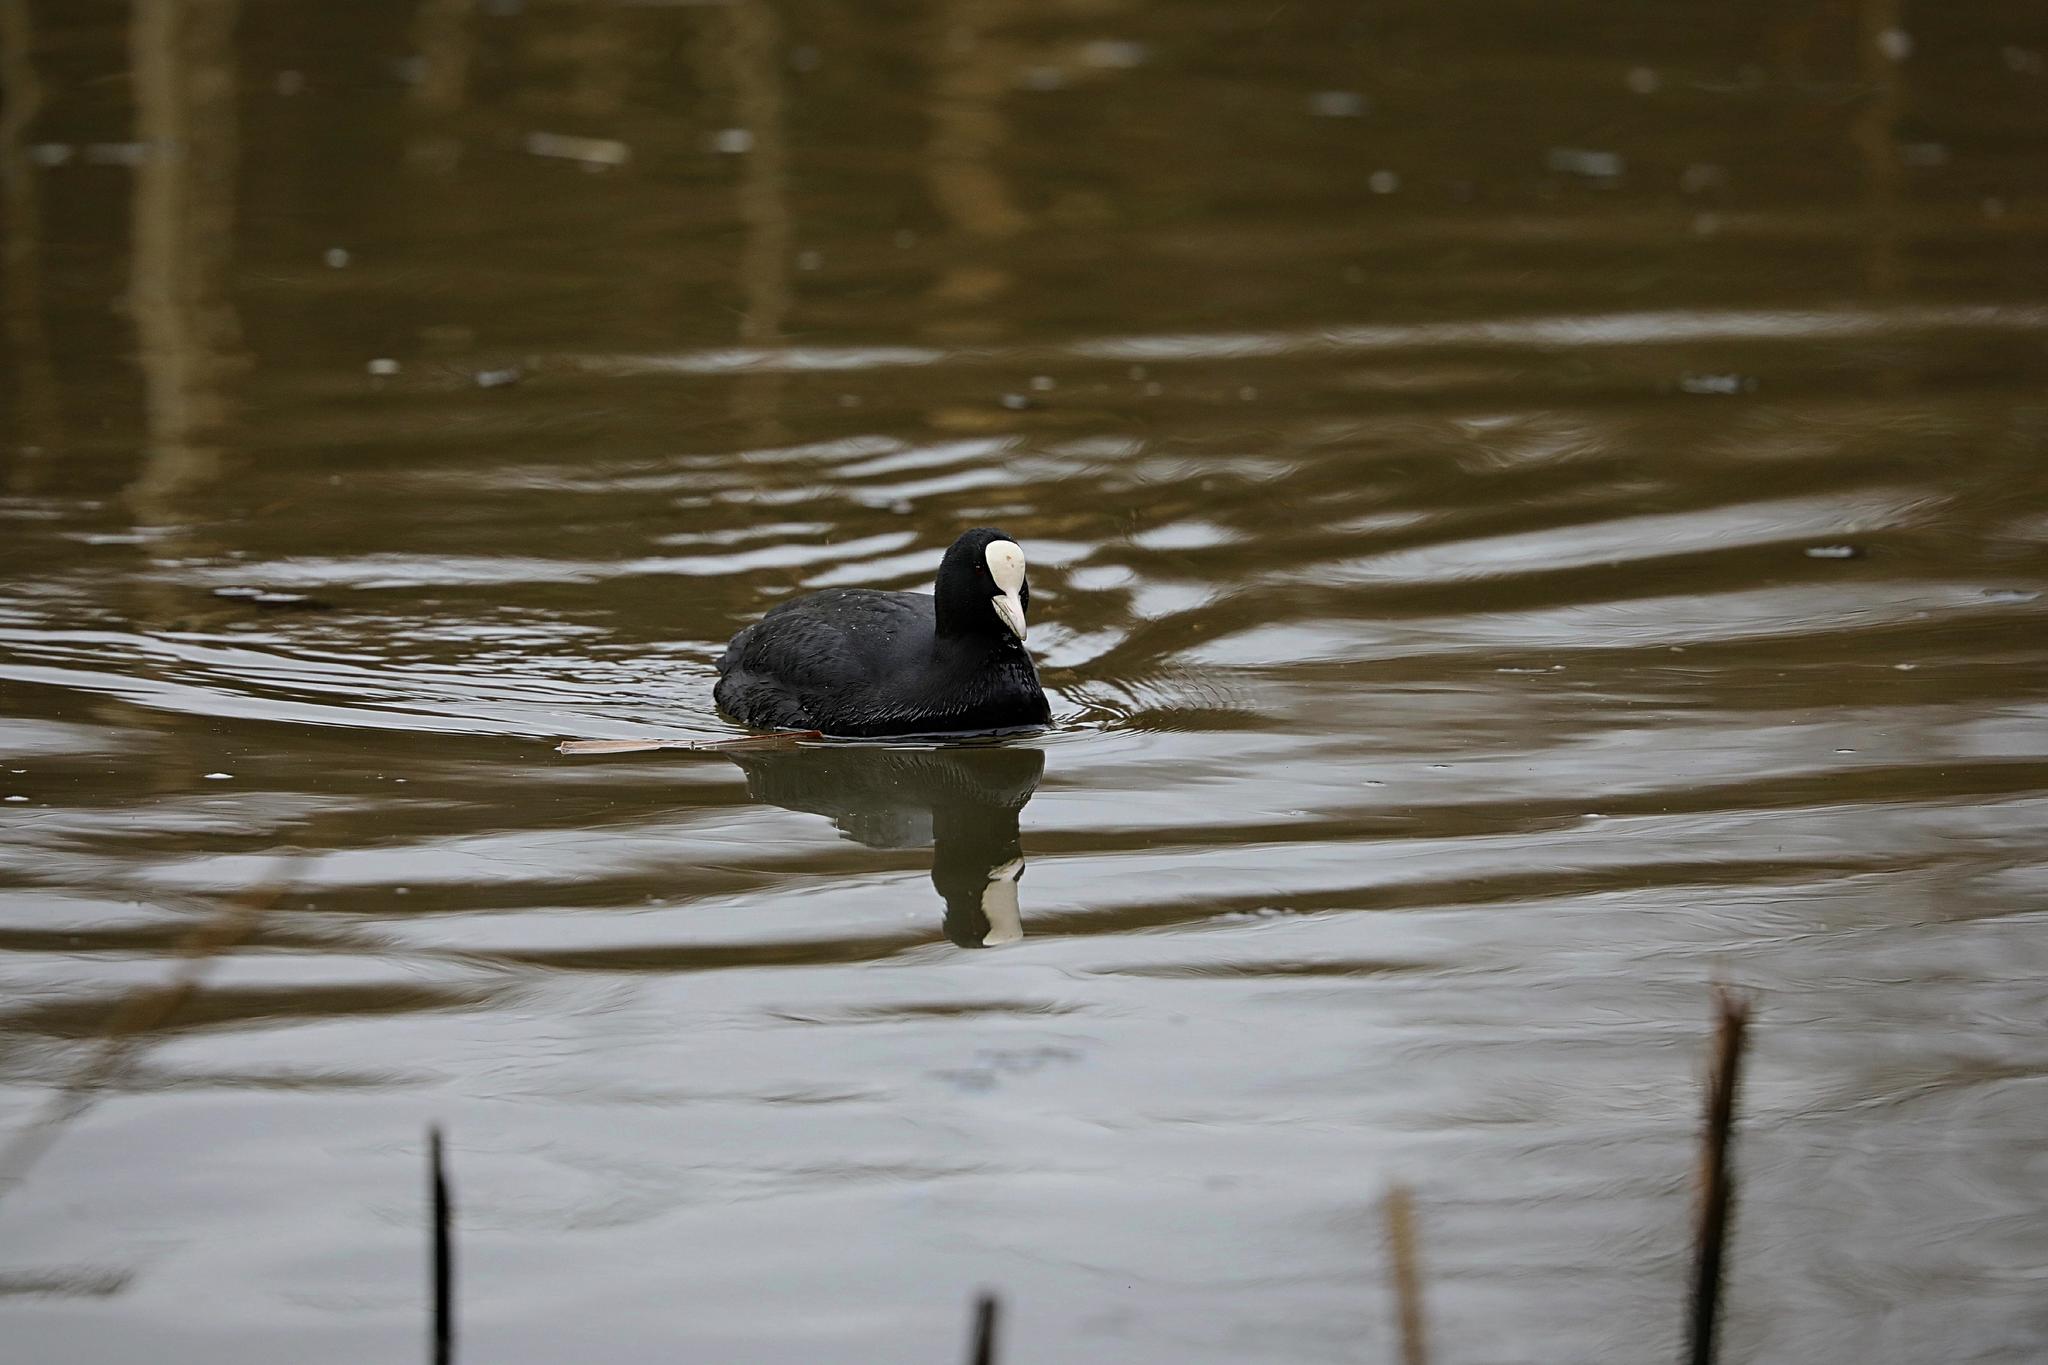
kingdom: Animalia
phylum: Chordata
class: Aves
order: Gruiformes
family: Rallidae
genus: Fulica
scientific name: Fulica atra
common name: Eurasian coot
